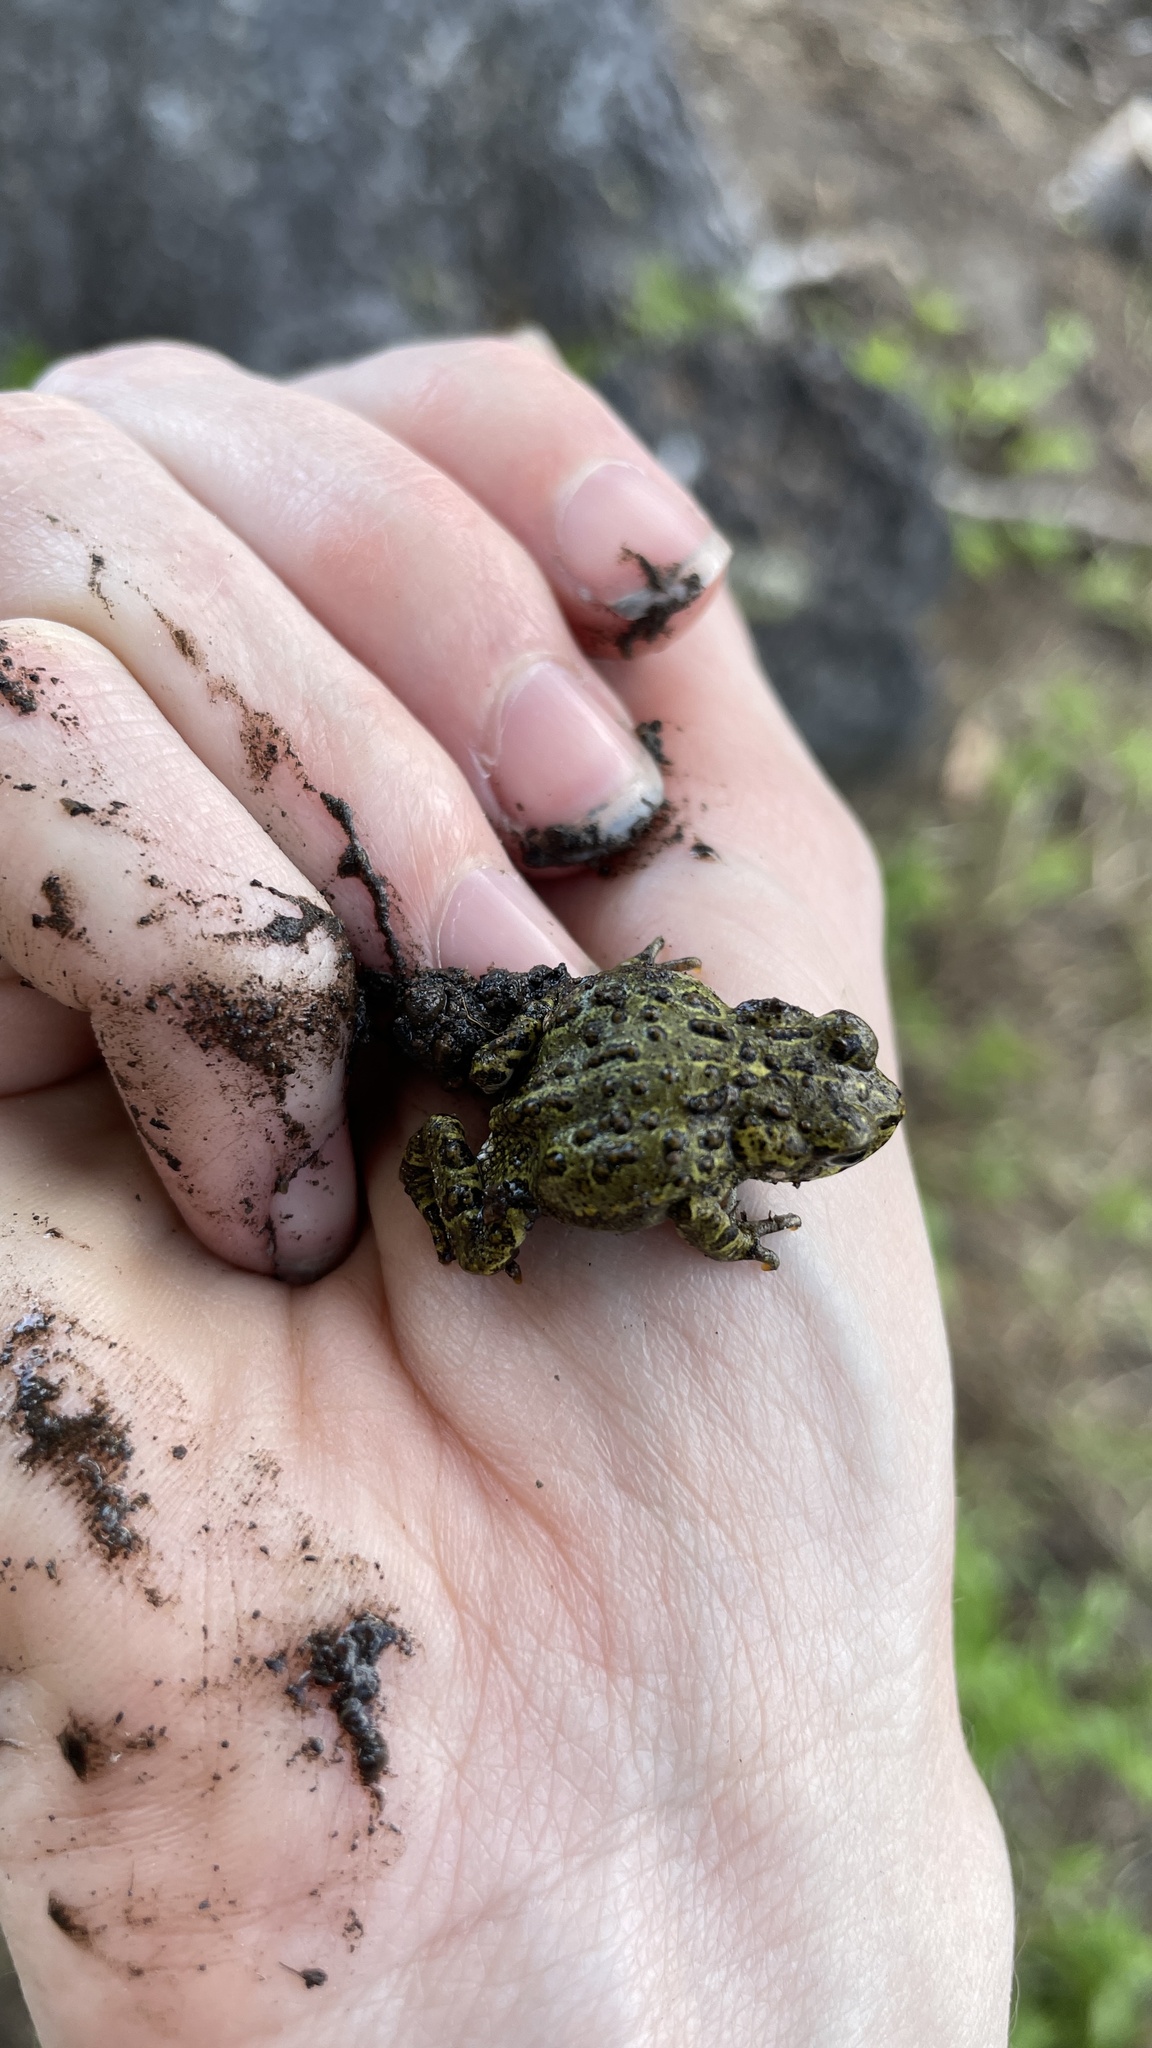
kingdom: Animalia
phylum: Chordata
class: Amphibia
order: Anura
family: Bufonidae
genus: Anaxyrus
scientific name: Anaxyrus boreas
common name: Western toad
